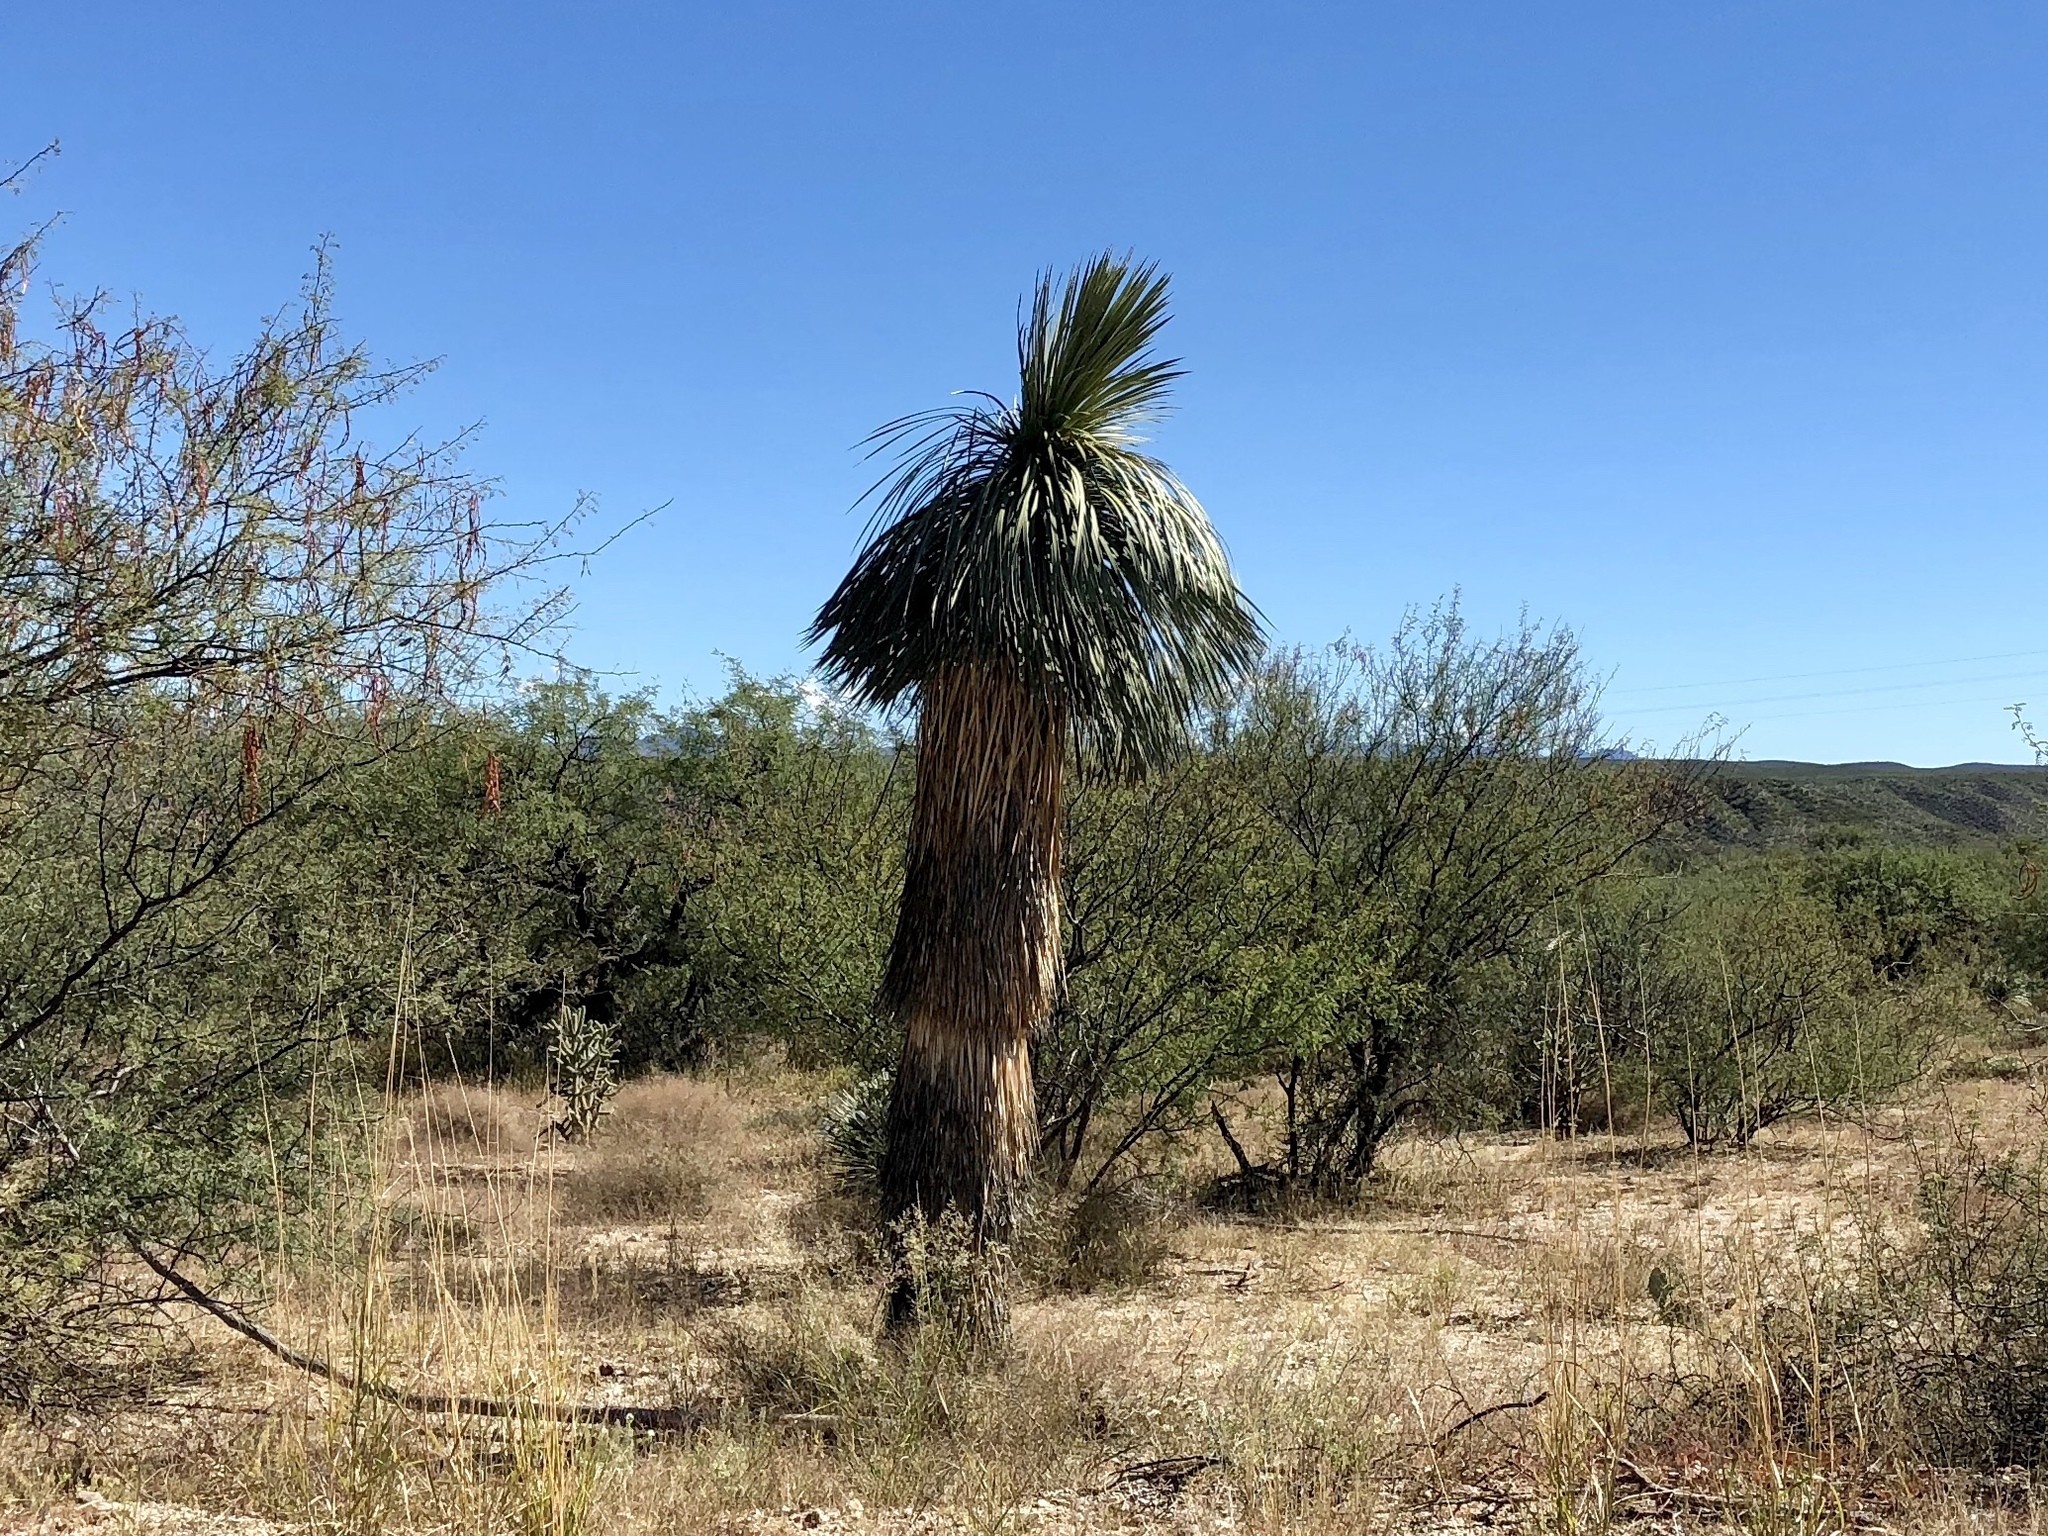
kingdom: Plantae
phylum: Tracheophyta
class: Liliopsida
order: Asparagales
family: Asparagaceae
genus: Yucca
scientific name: Yucca elata
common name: Palmella
